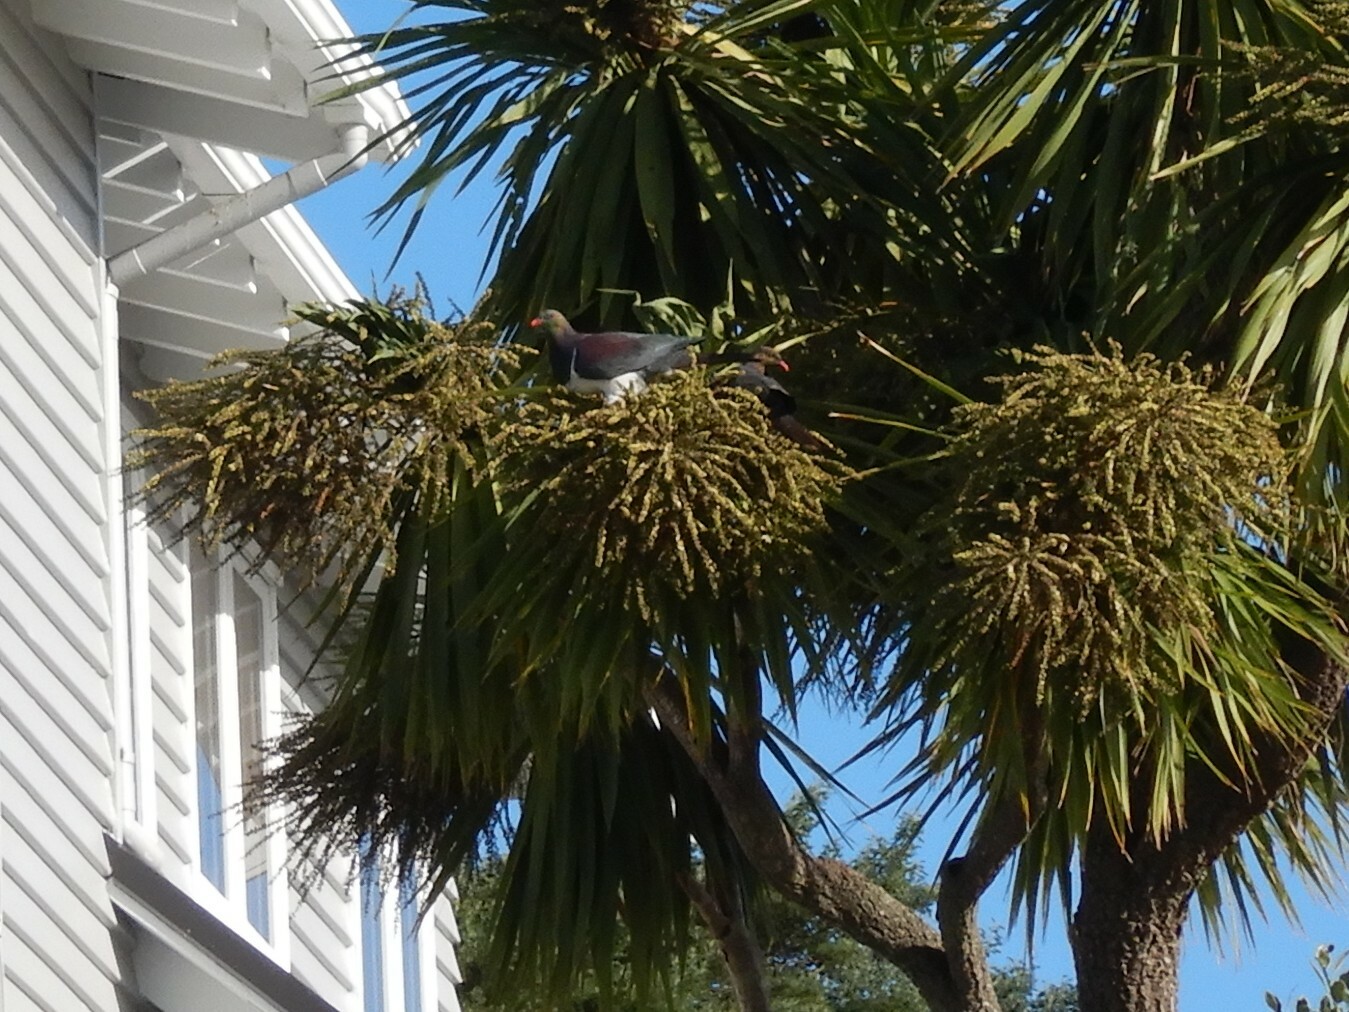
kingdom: Animalia
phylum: Chordata
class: Aves
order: Columbiformes
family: Columbidae
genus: Hemiphaga
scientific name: Hemiphaga novaeseelandiae
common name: New zealand pigeon
